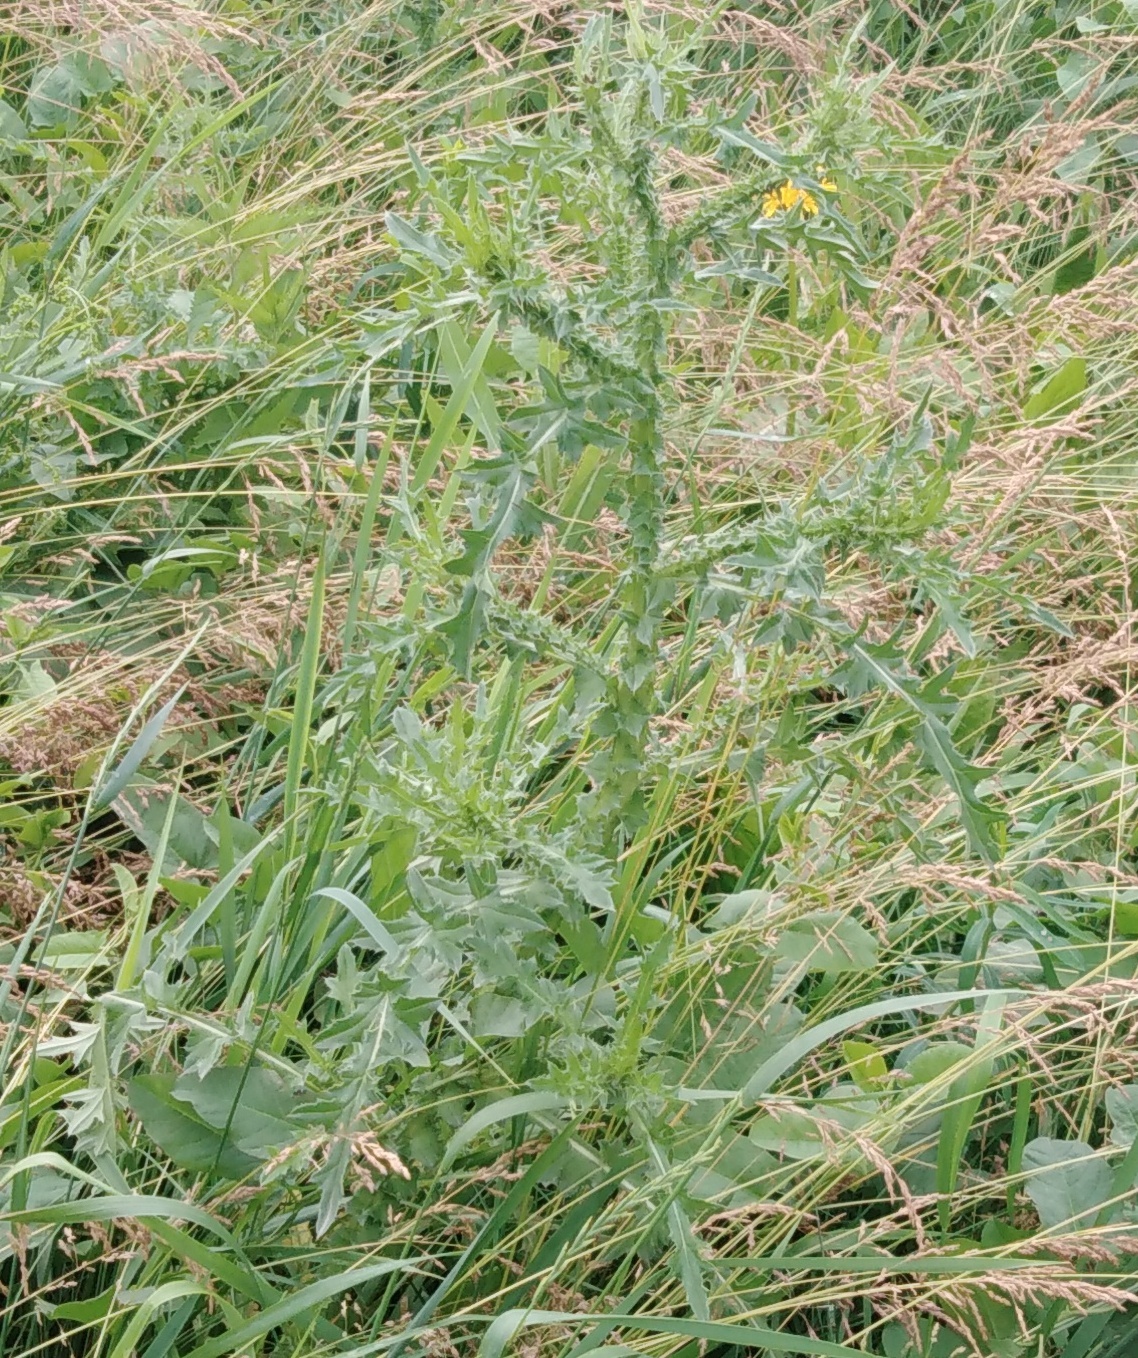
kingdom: Plantae
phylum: Tracheophyta
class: Magnoliopsida
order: Asterales
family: Asteraceae
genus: Carduus
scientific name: Carduus acanthoides
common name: Plumeless thistle
